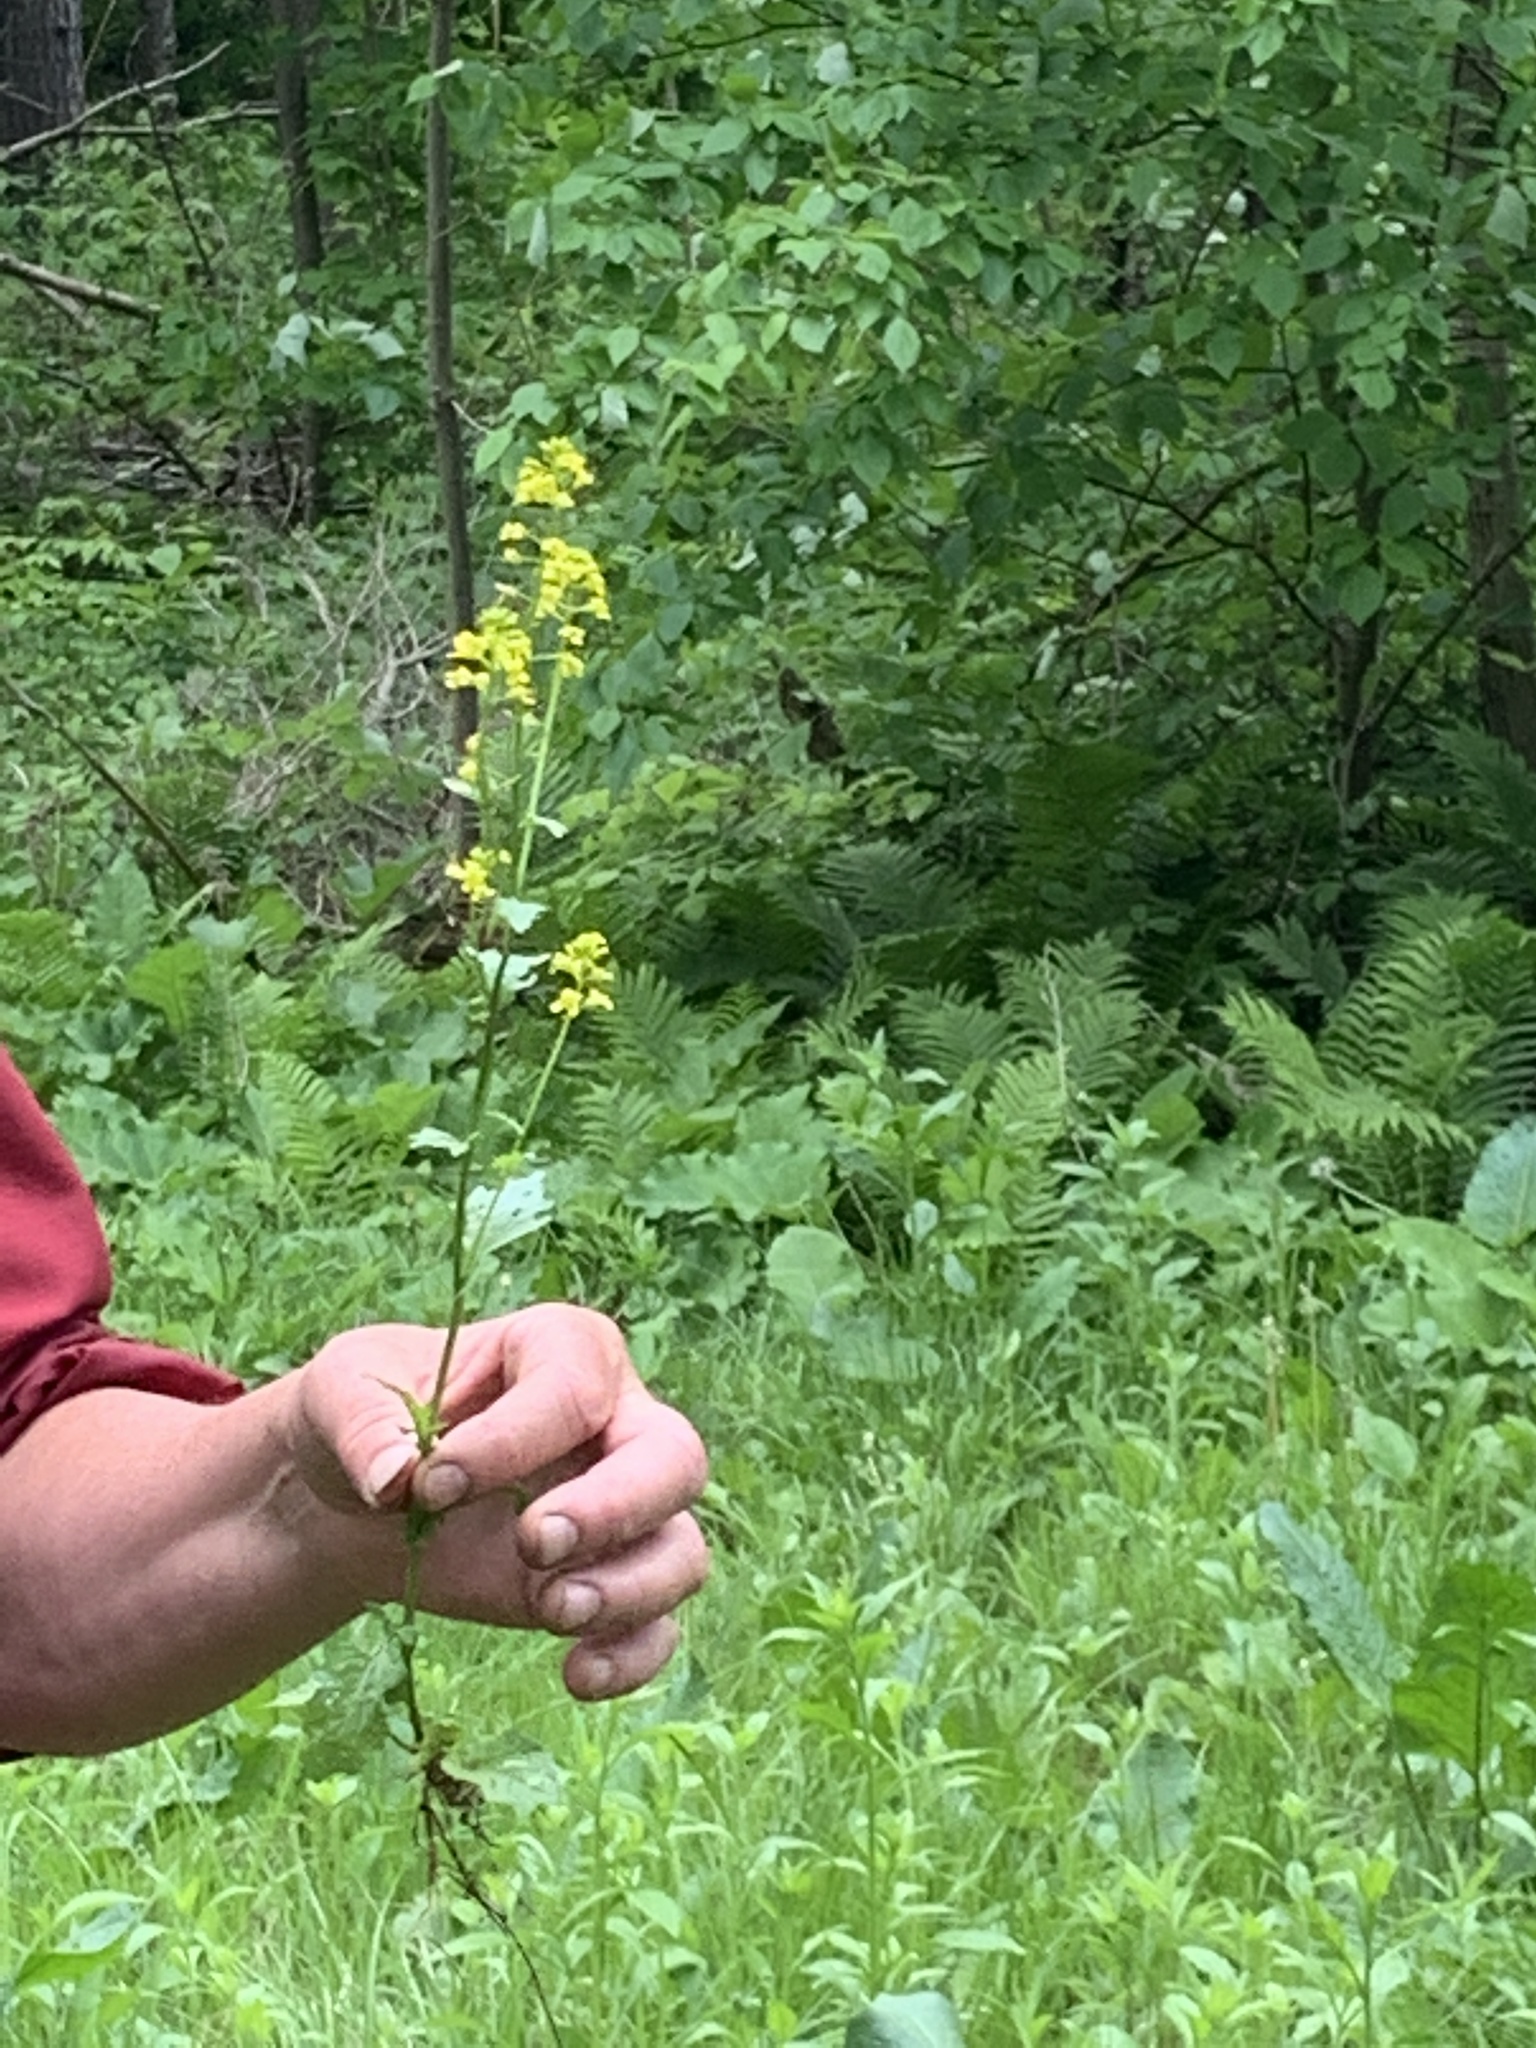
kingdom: Plantae
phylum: Tracheophyta
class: Magnoliopsida
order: Brassicales
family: Brassicaceae
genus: Barbarea
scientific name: Barbarea vulgaris
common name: Cressy-greens
